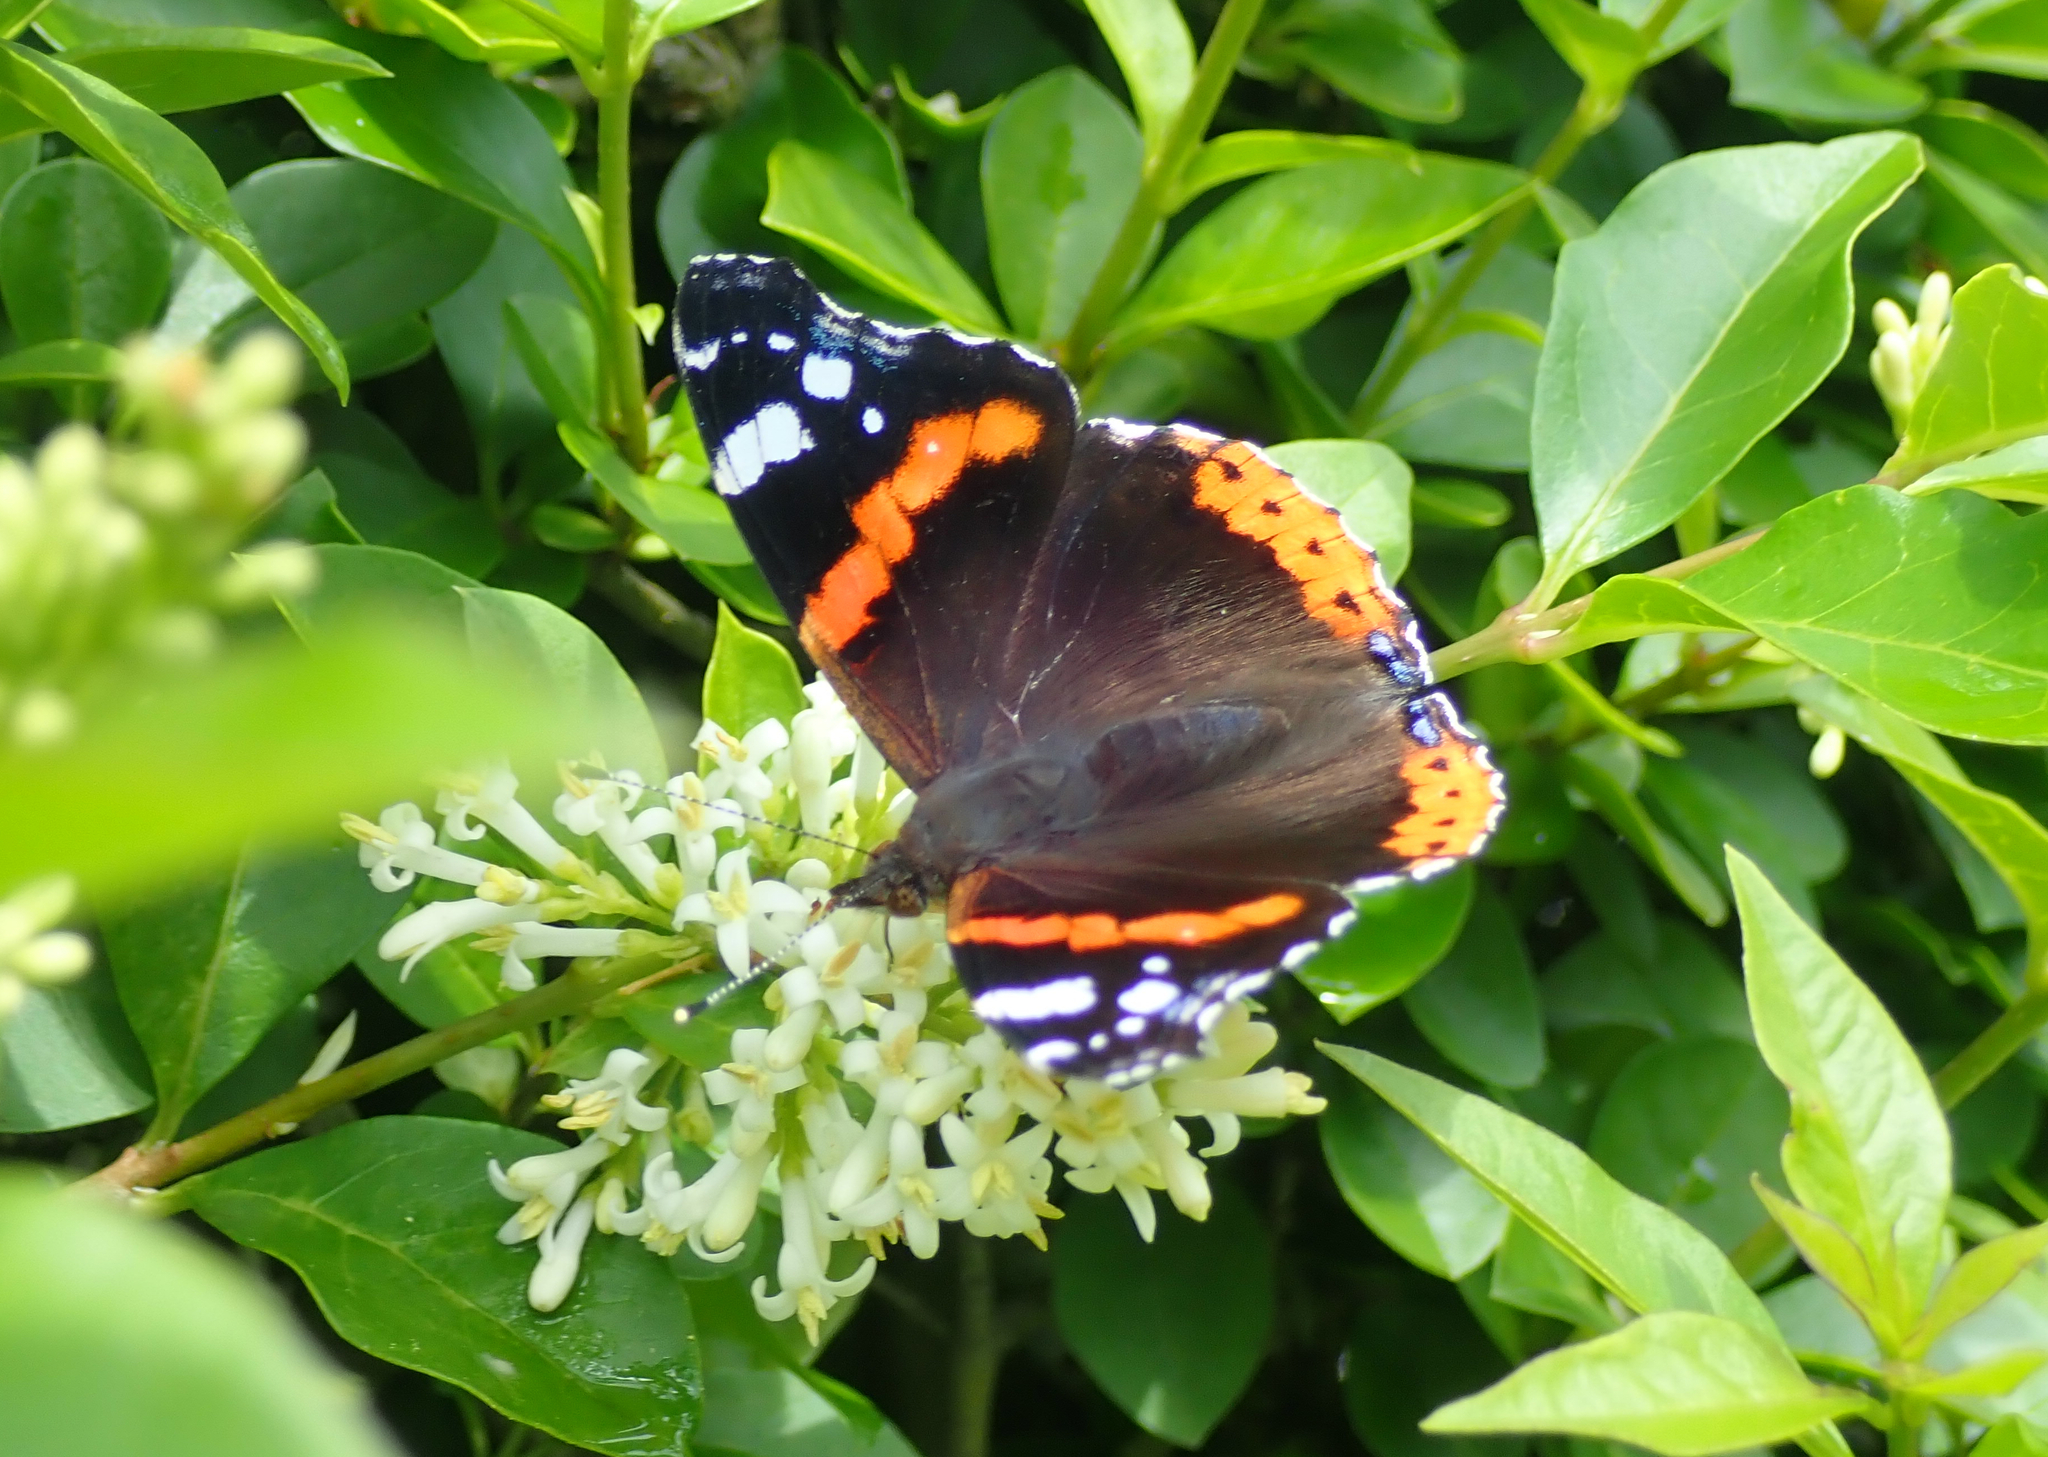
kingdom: Animalia
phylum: Arthropoda
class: Insecta
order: Lepidoptera
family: Nymphalidae
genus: Vanessa
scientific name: Vanessa atalanta
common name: Red admiral
